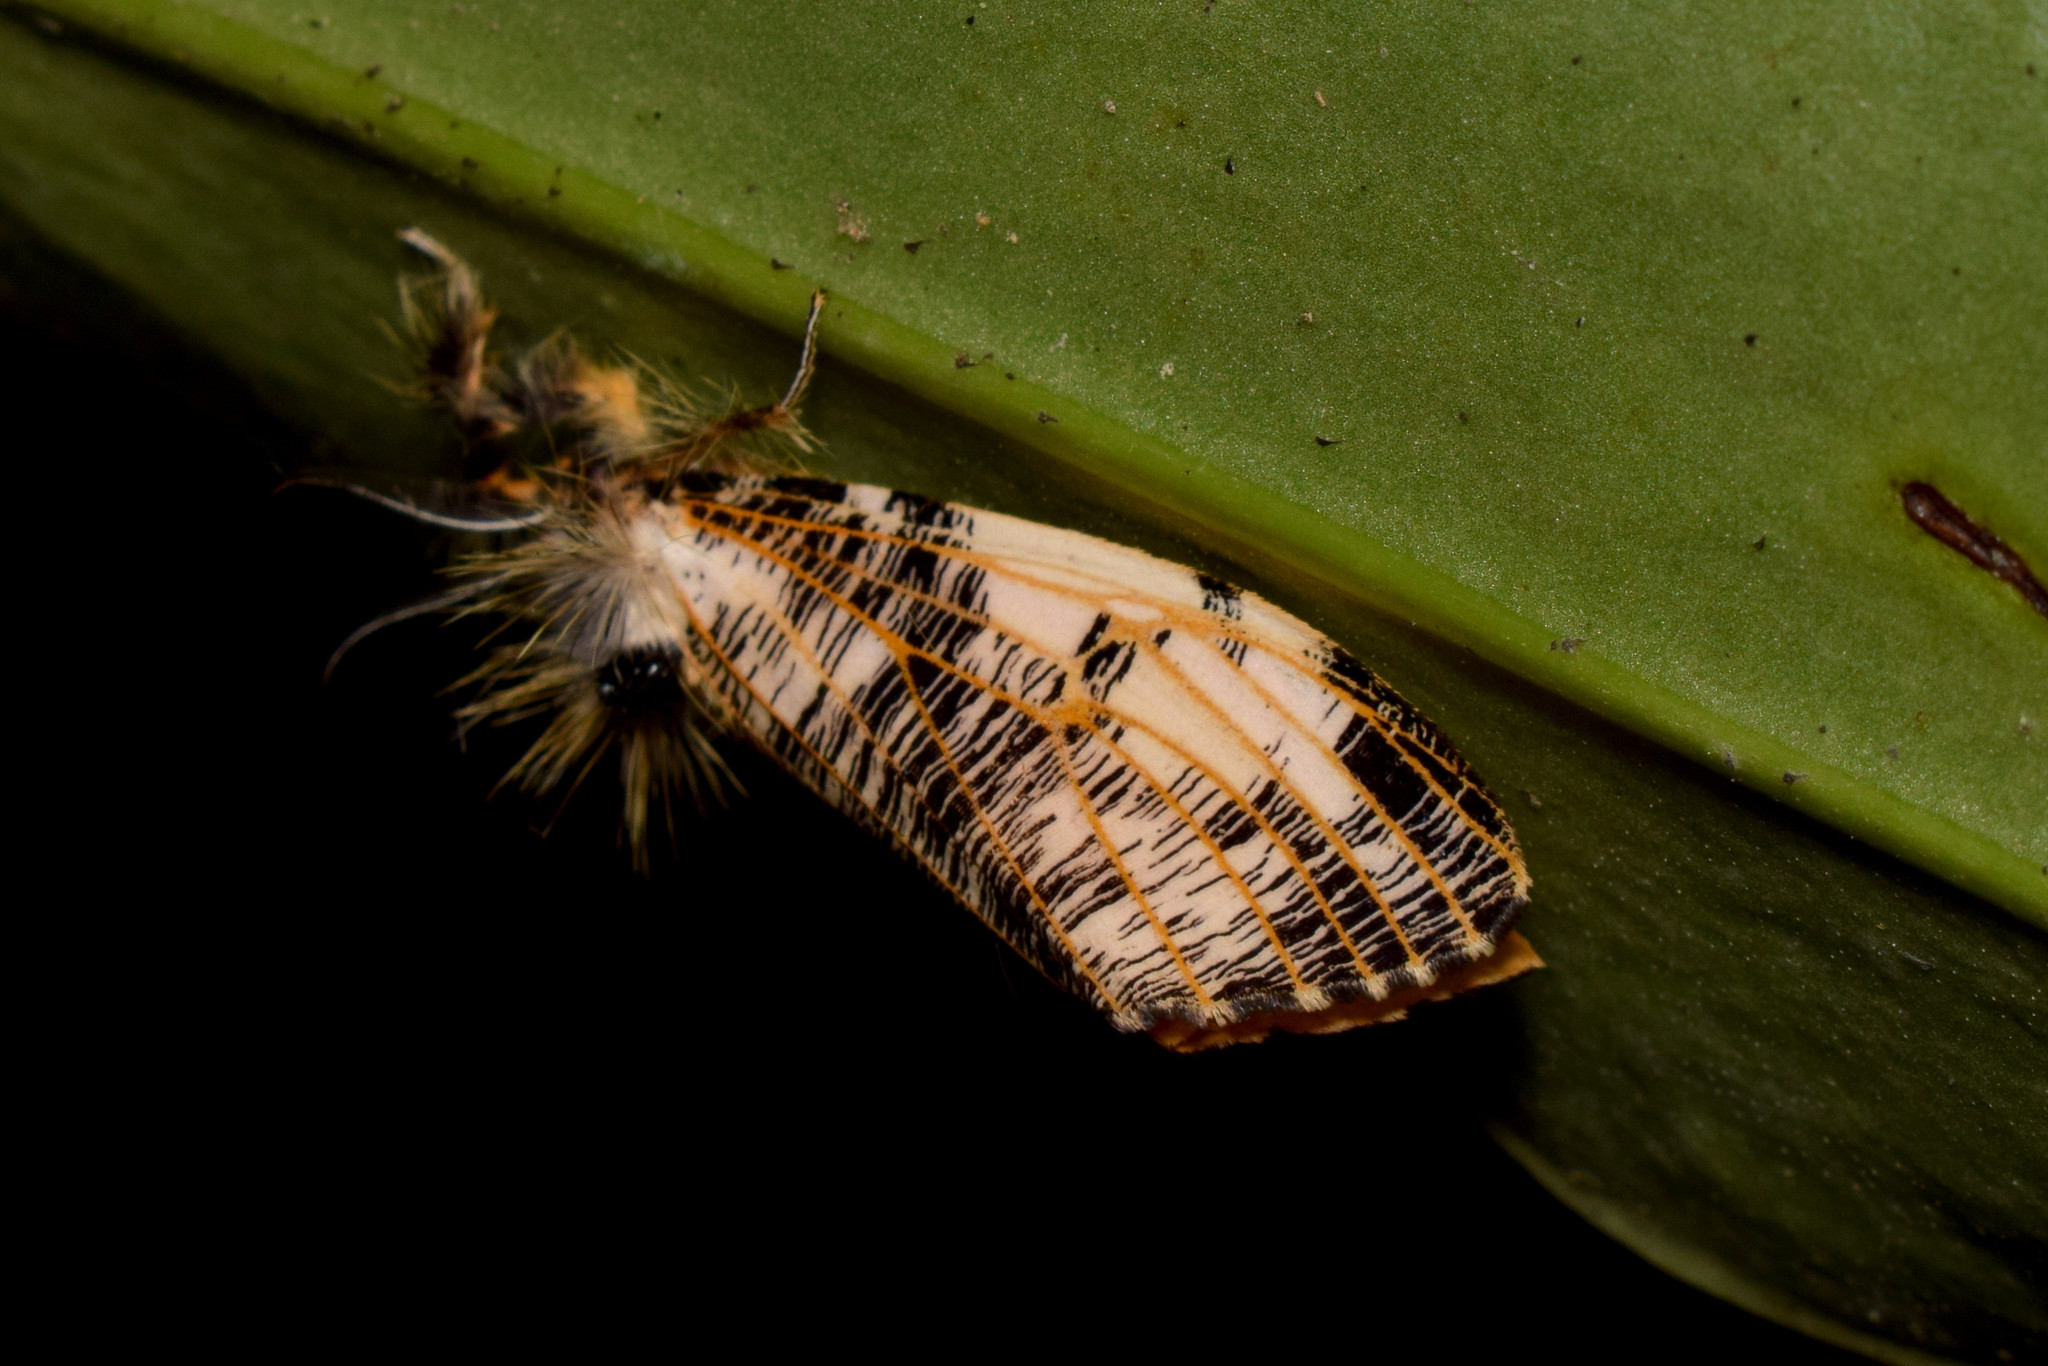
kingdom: Animalia
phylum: Arthropoda
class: Insecta
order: Lepidoptera
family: Erebidae
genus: Locharna
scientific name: Locharna strigipennis
